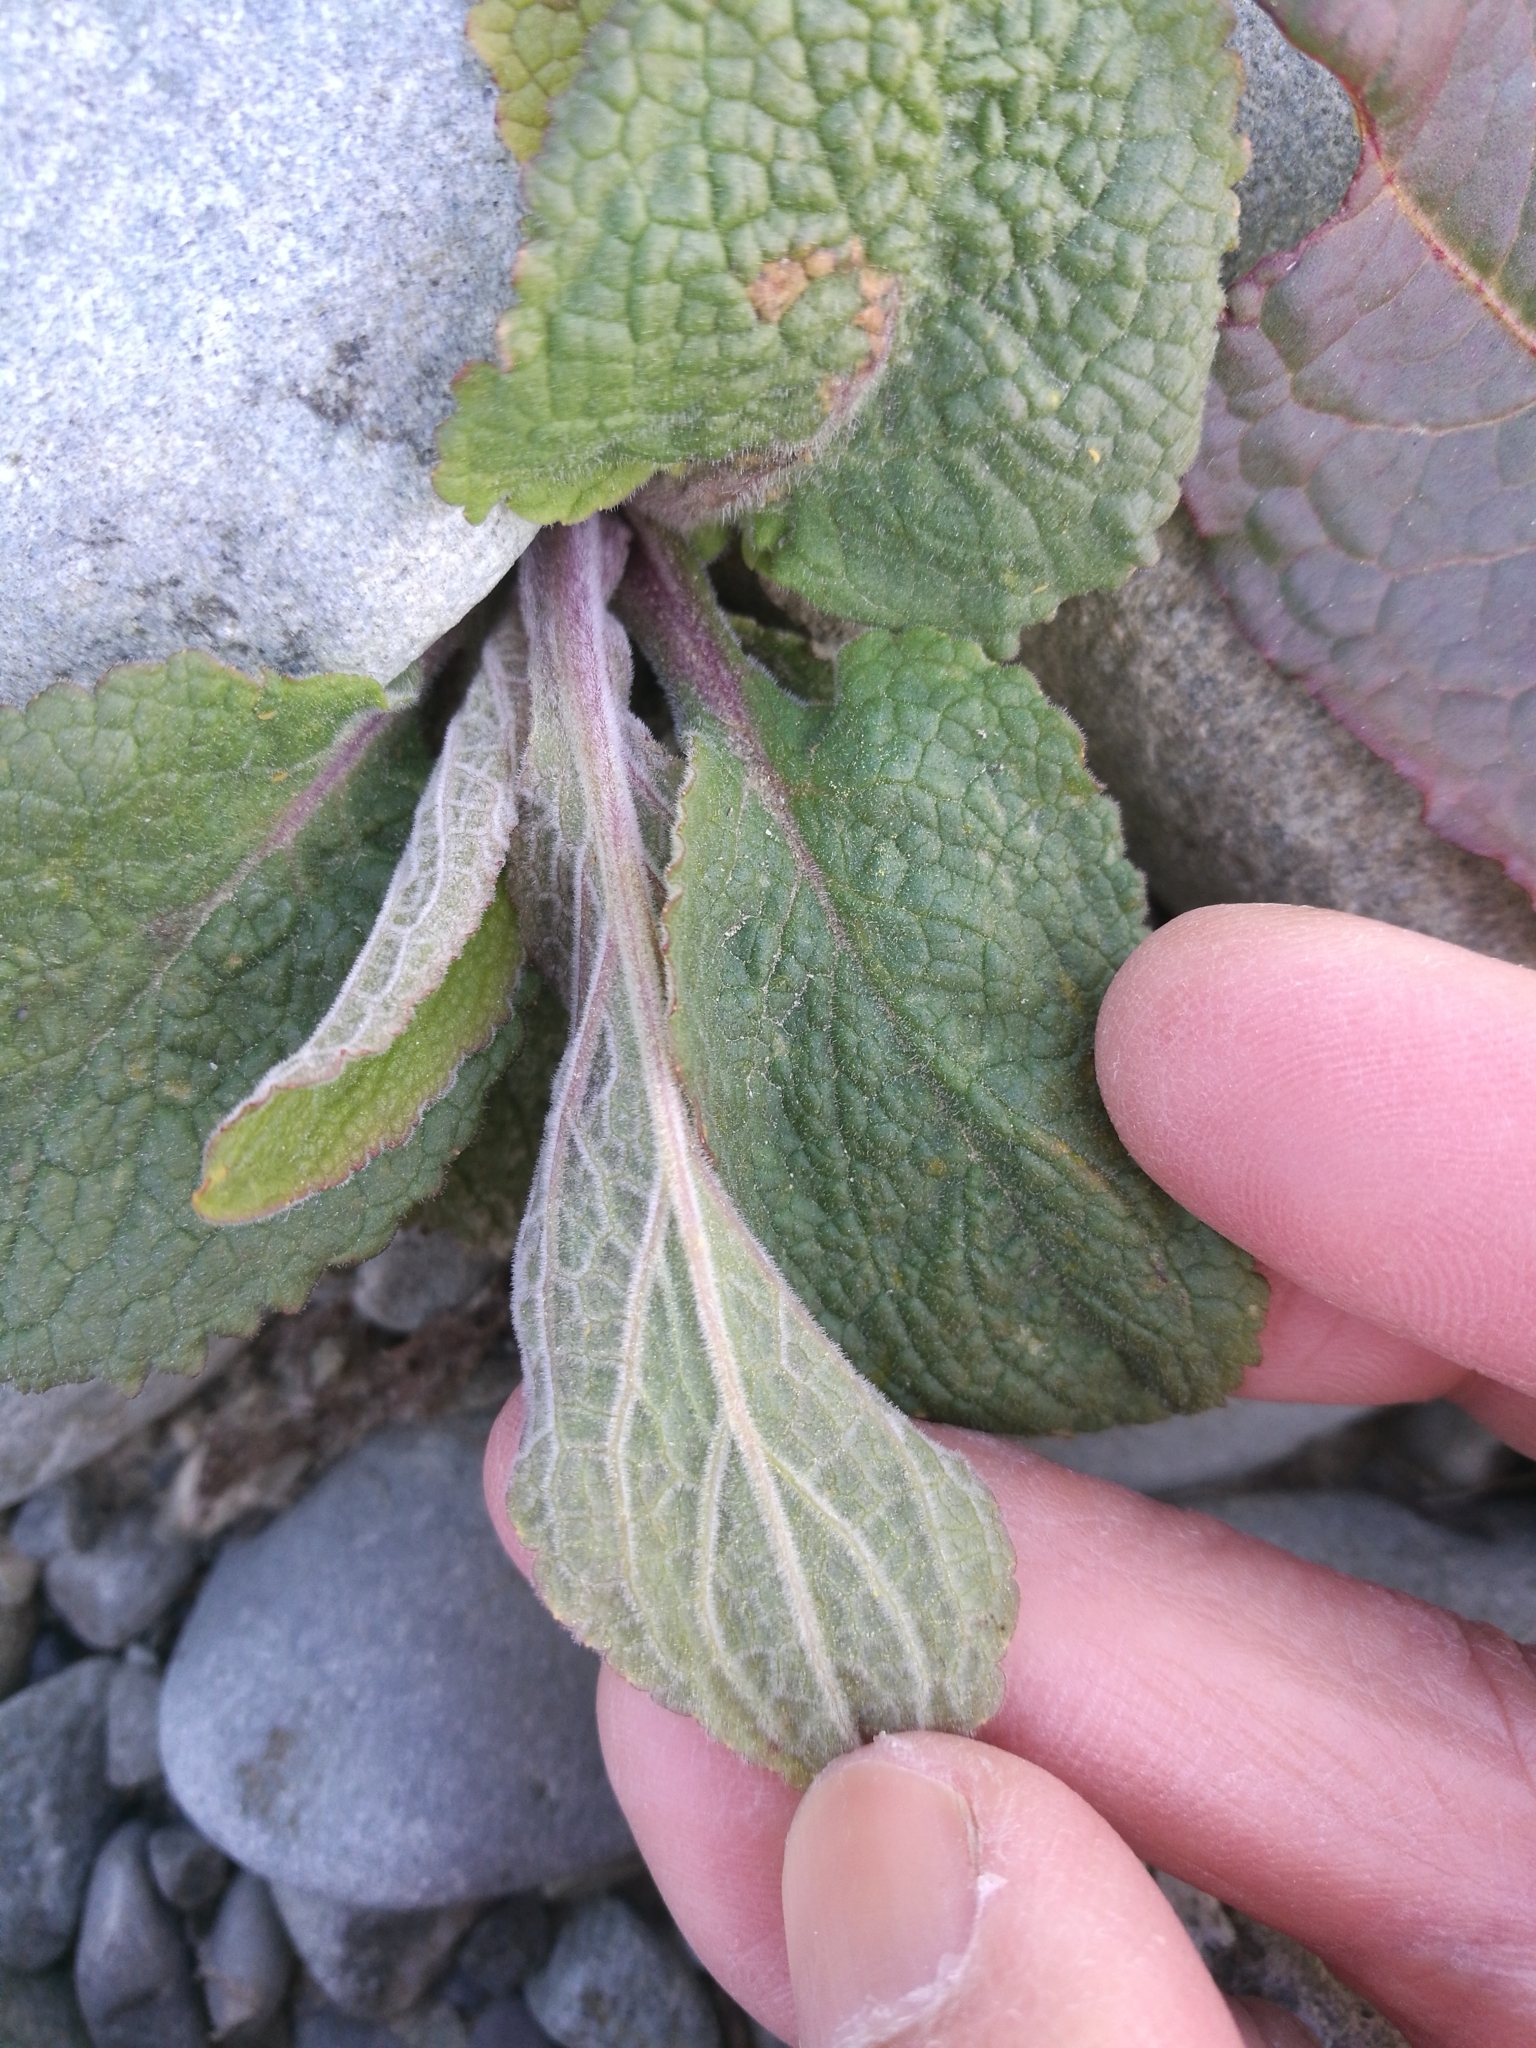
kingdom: Plantae
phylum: Tracheophyta
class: Magnoliopsida
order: Lamiales
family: Plantaginaceae
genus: Digitalis
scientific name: Digitalis purpurea
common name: Foxglove
